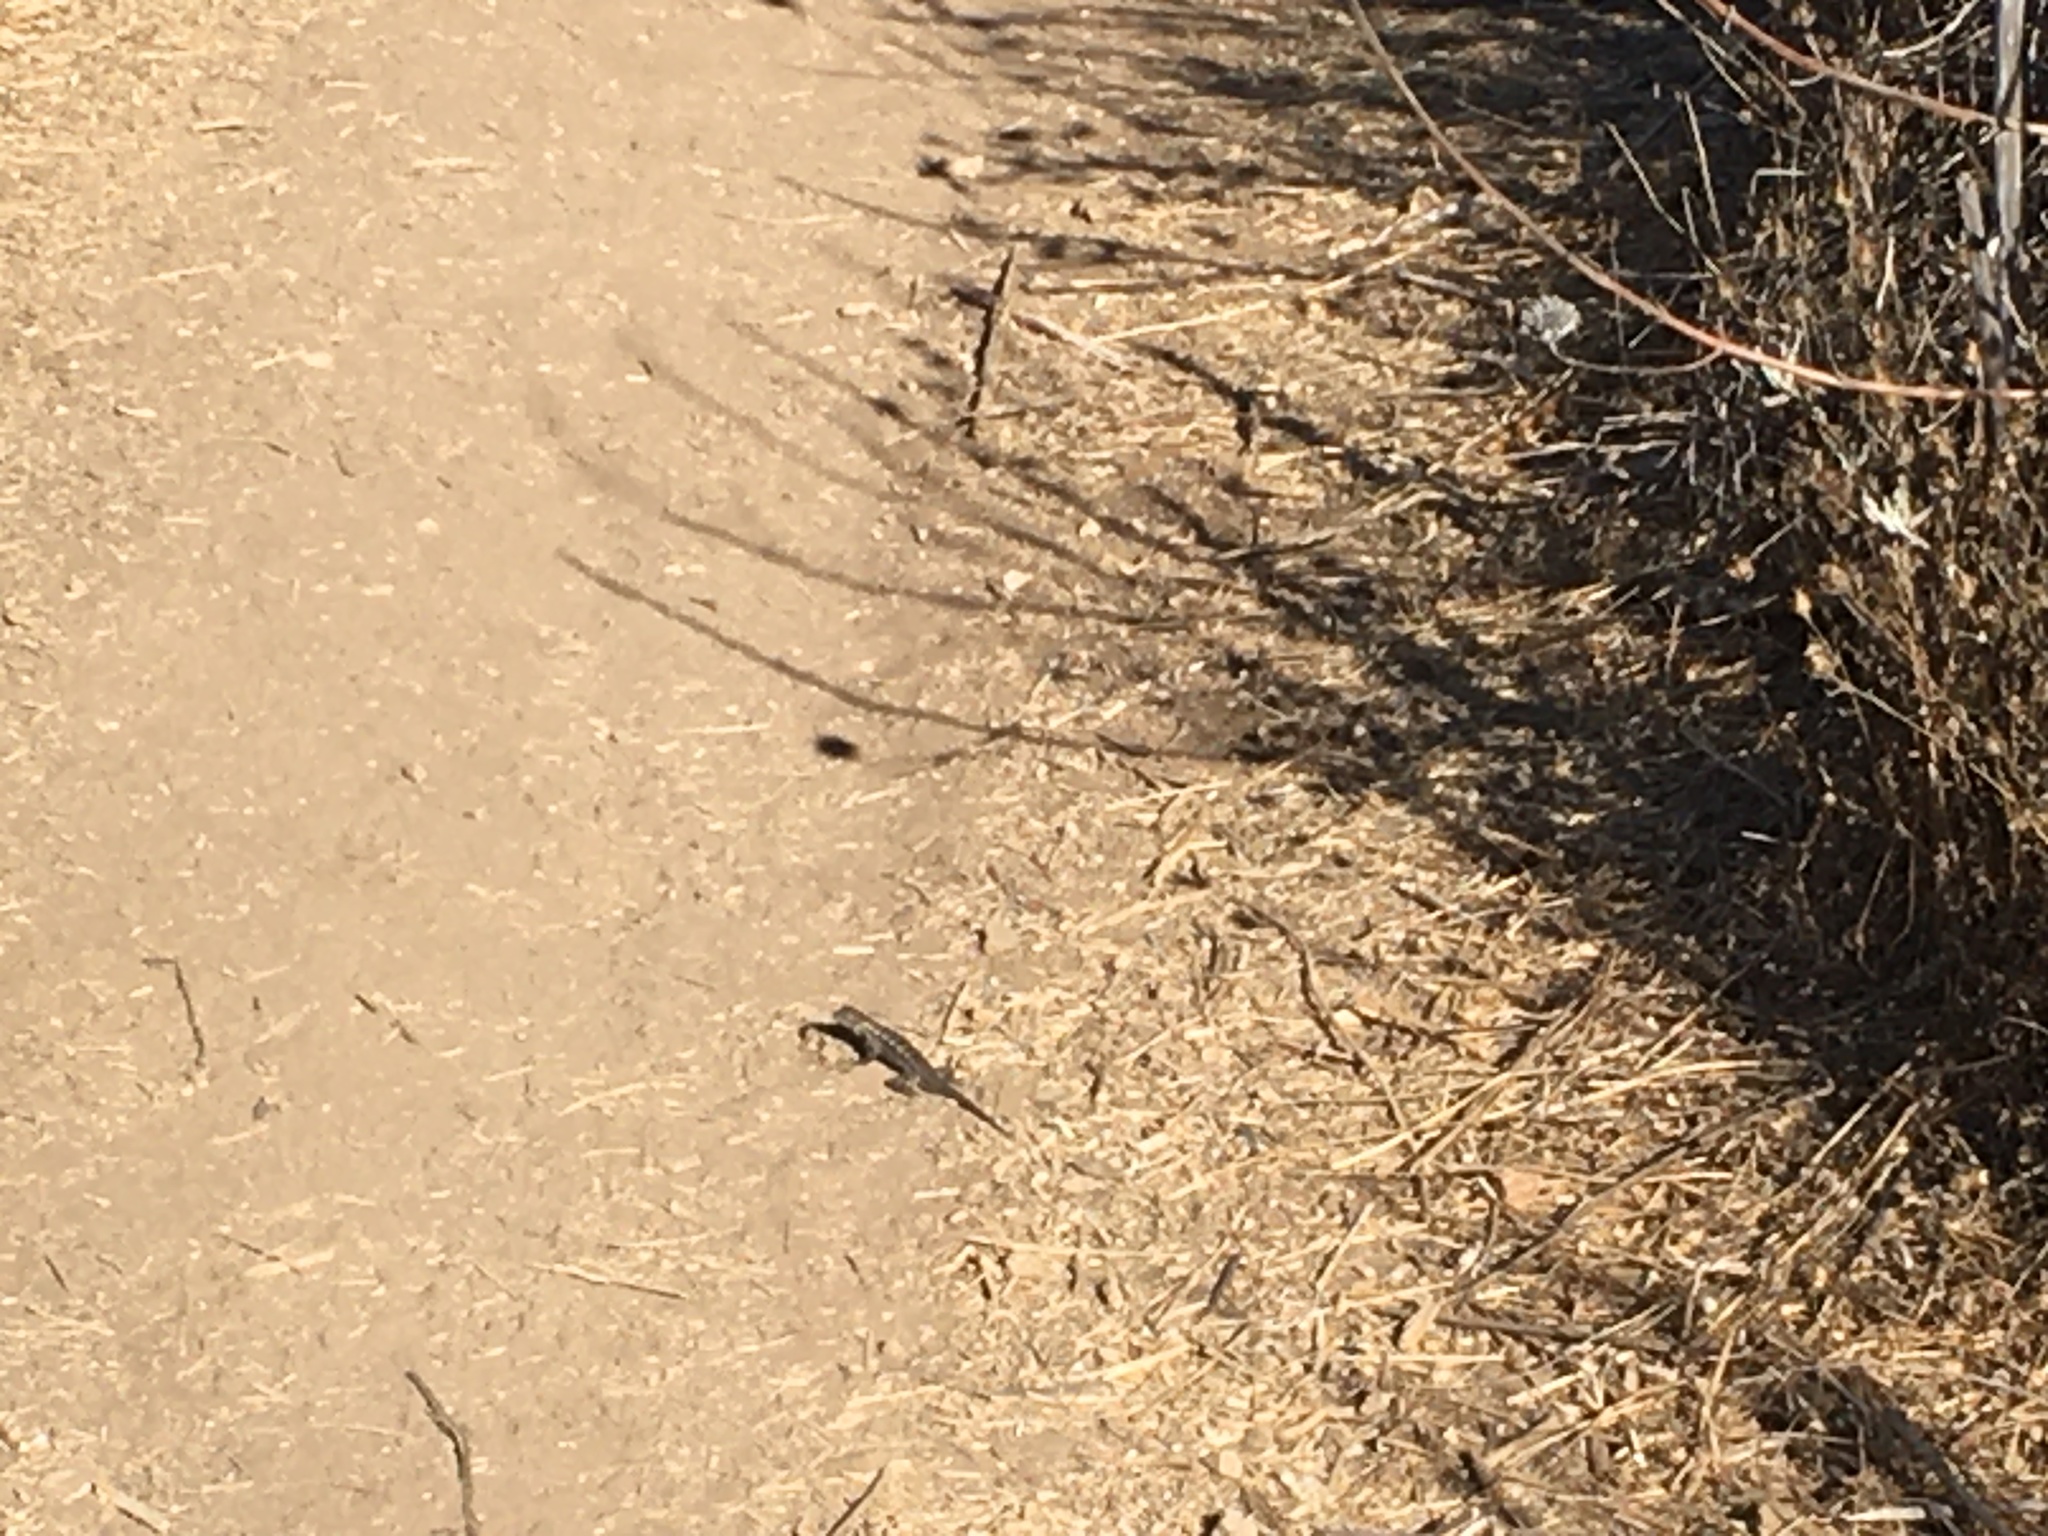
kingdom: Animalia
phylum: Chordata
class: Squamata
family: Phrynosomatidae
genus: Sceloporus
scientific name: Sceloporus occidentalis
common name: Western fence lizard
